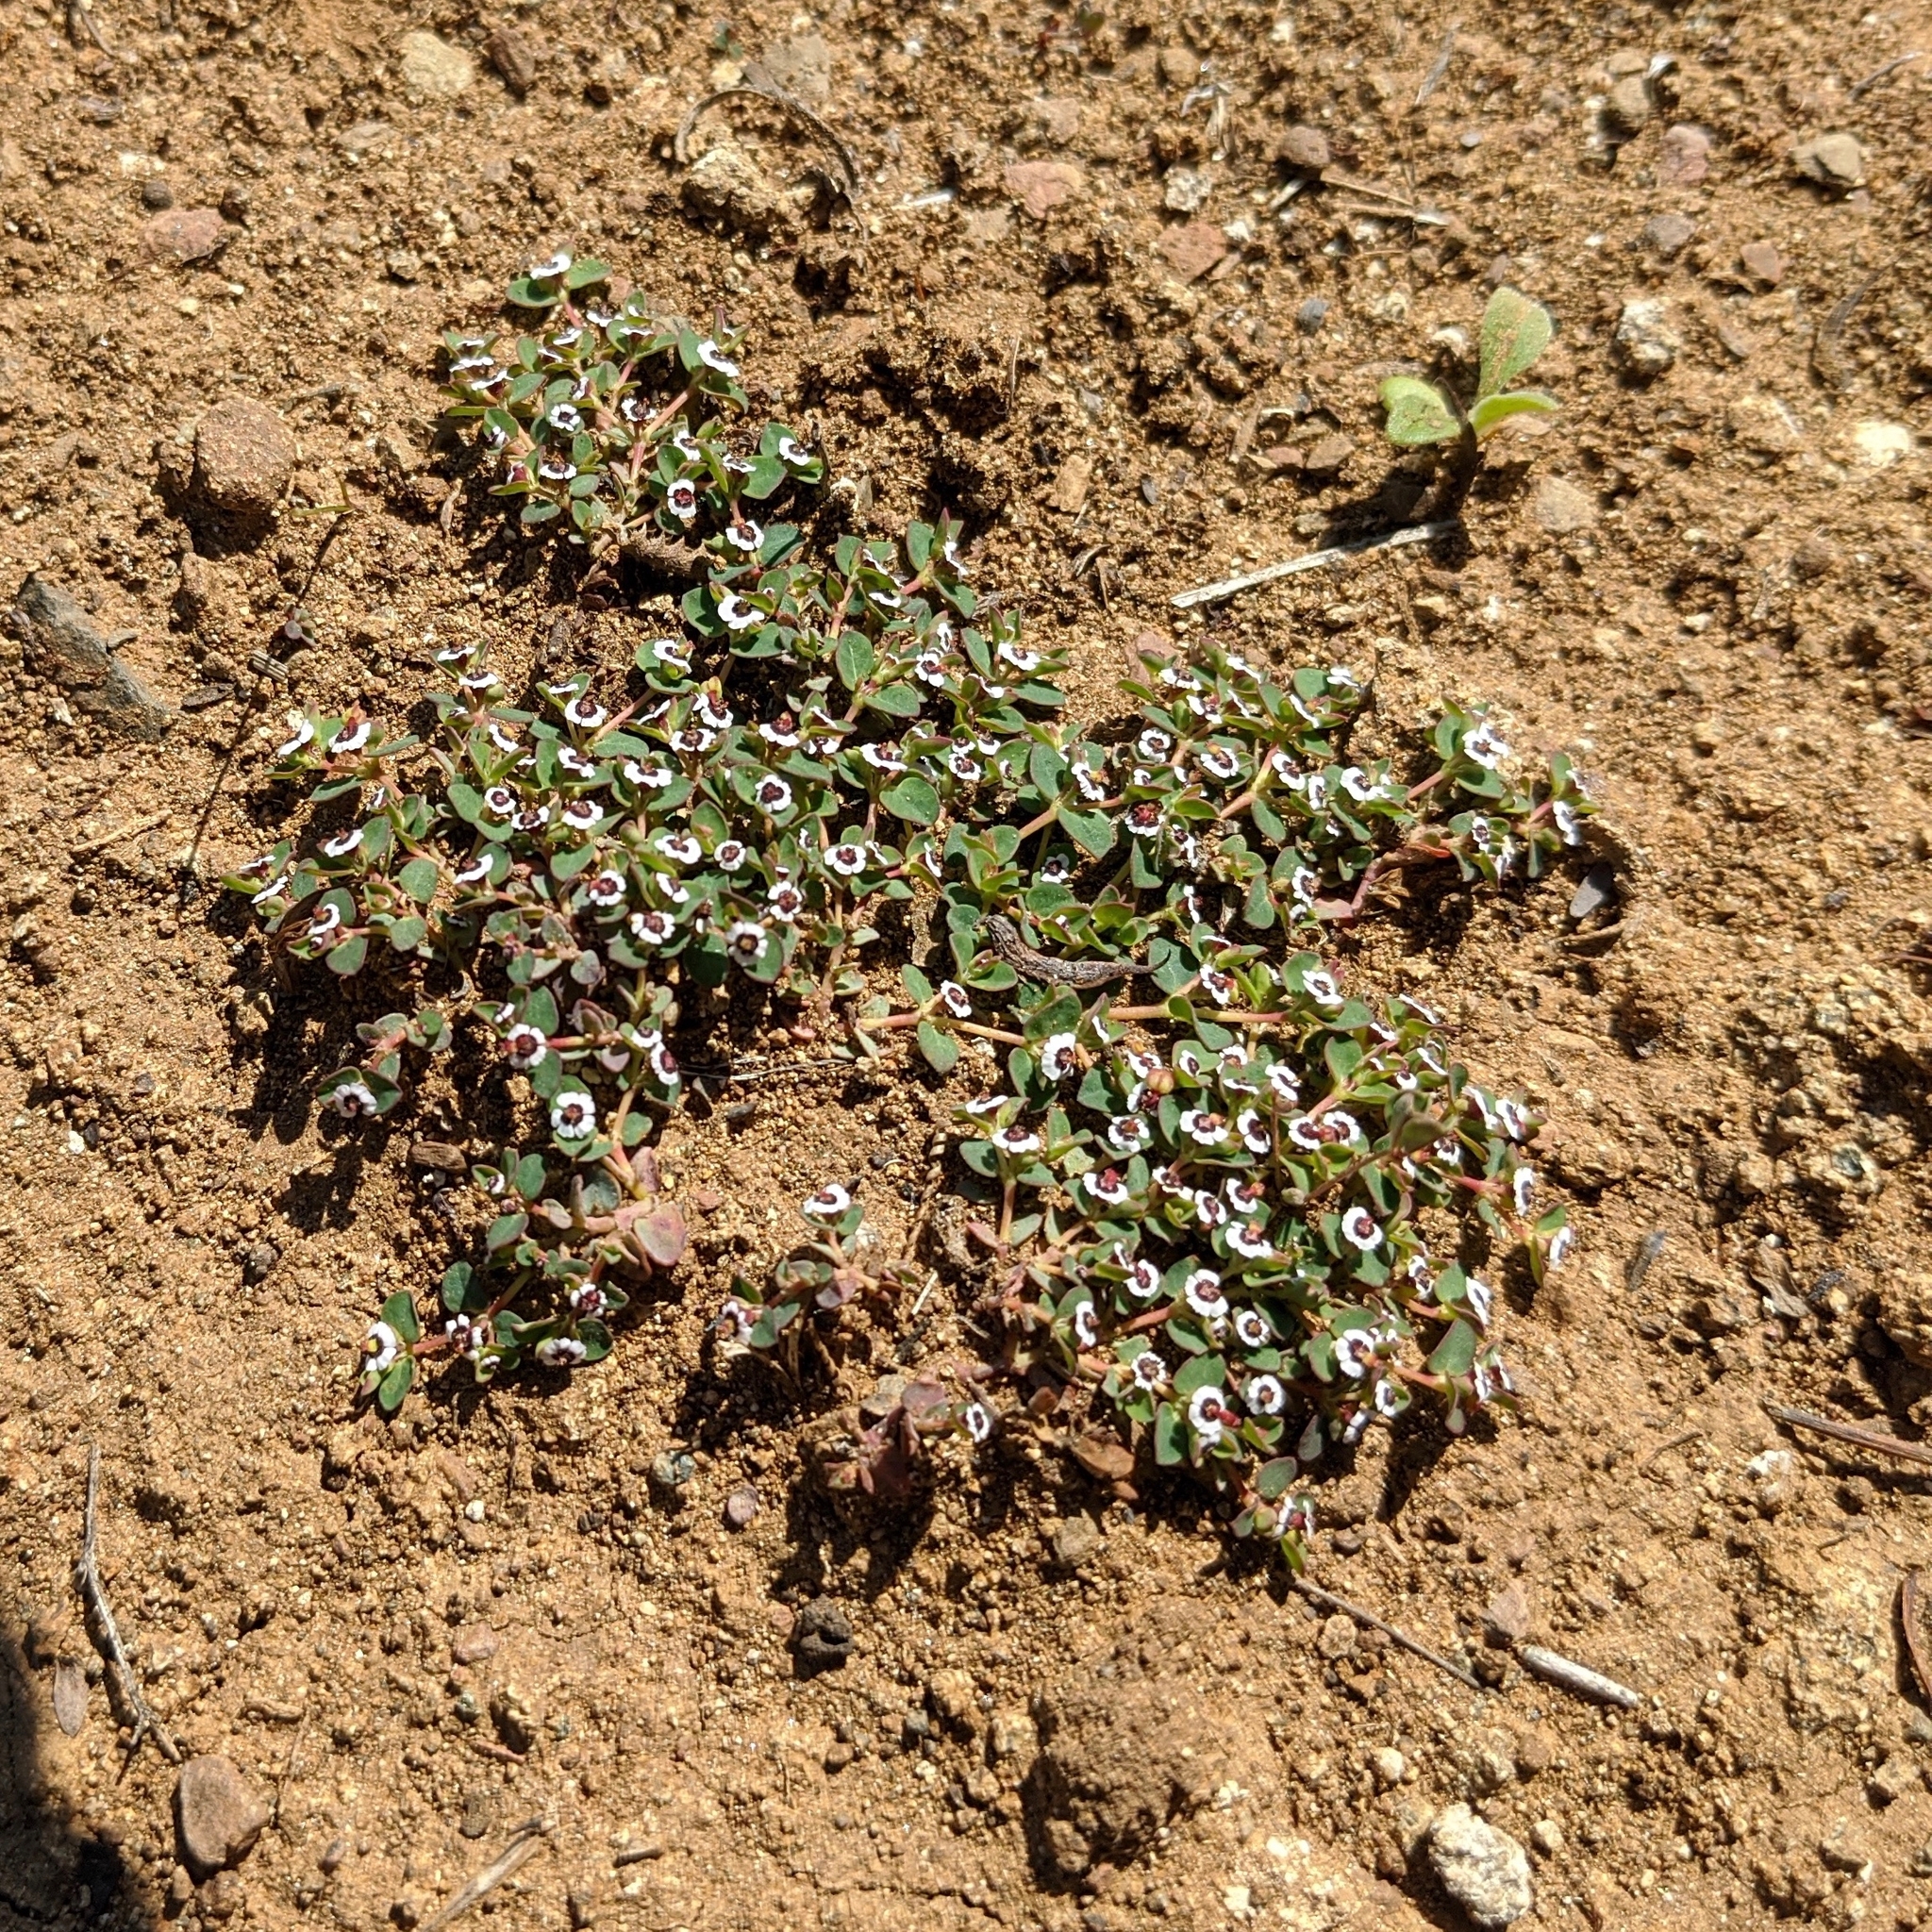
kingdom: Plantae
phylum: Tracheophyta
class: Magnoliopsida
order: Malpighiales
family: Euphorbiaceae
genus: Euphorbia
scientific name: Euphorbia polycarpa
